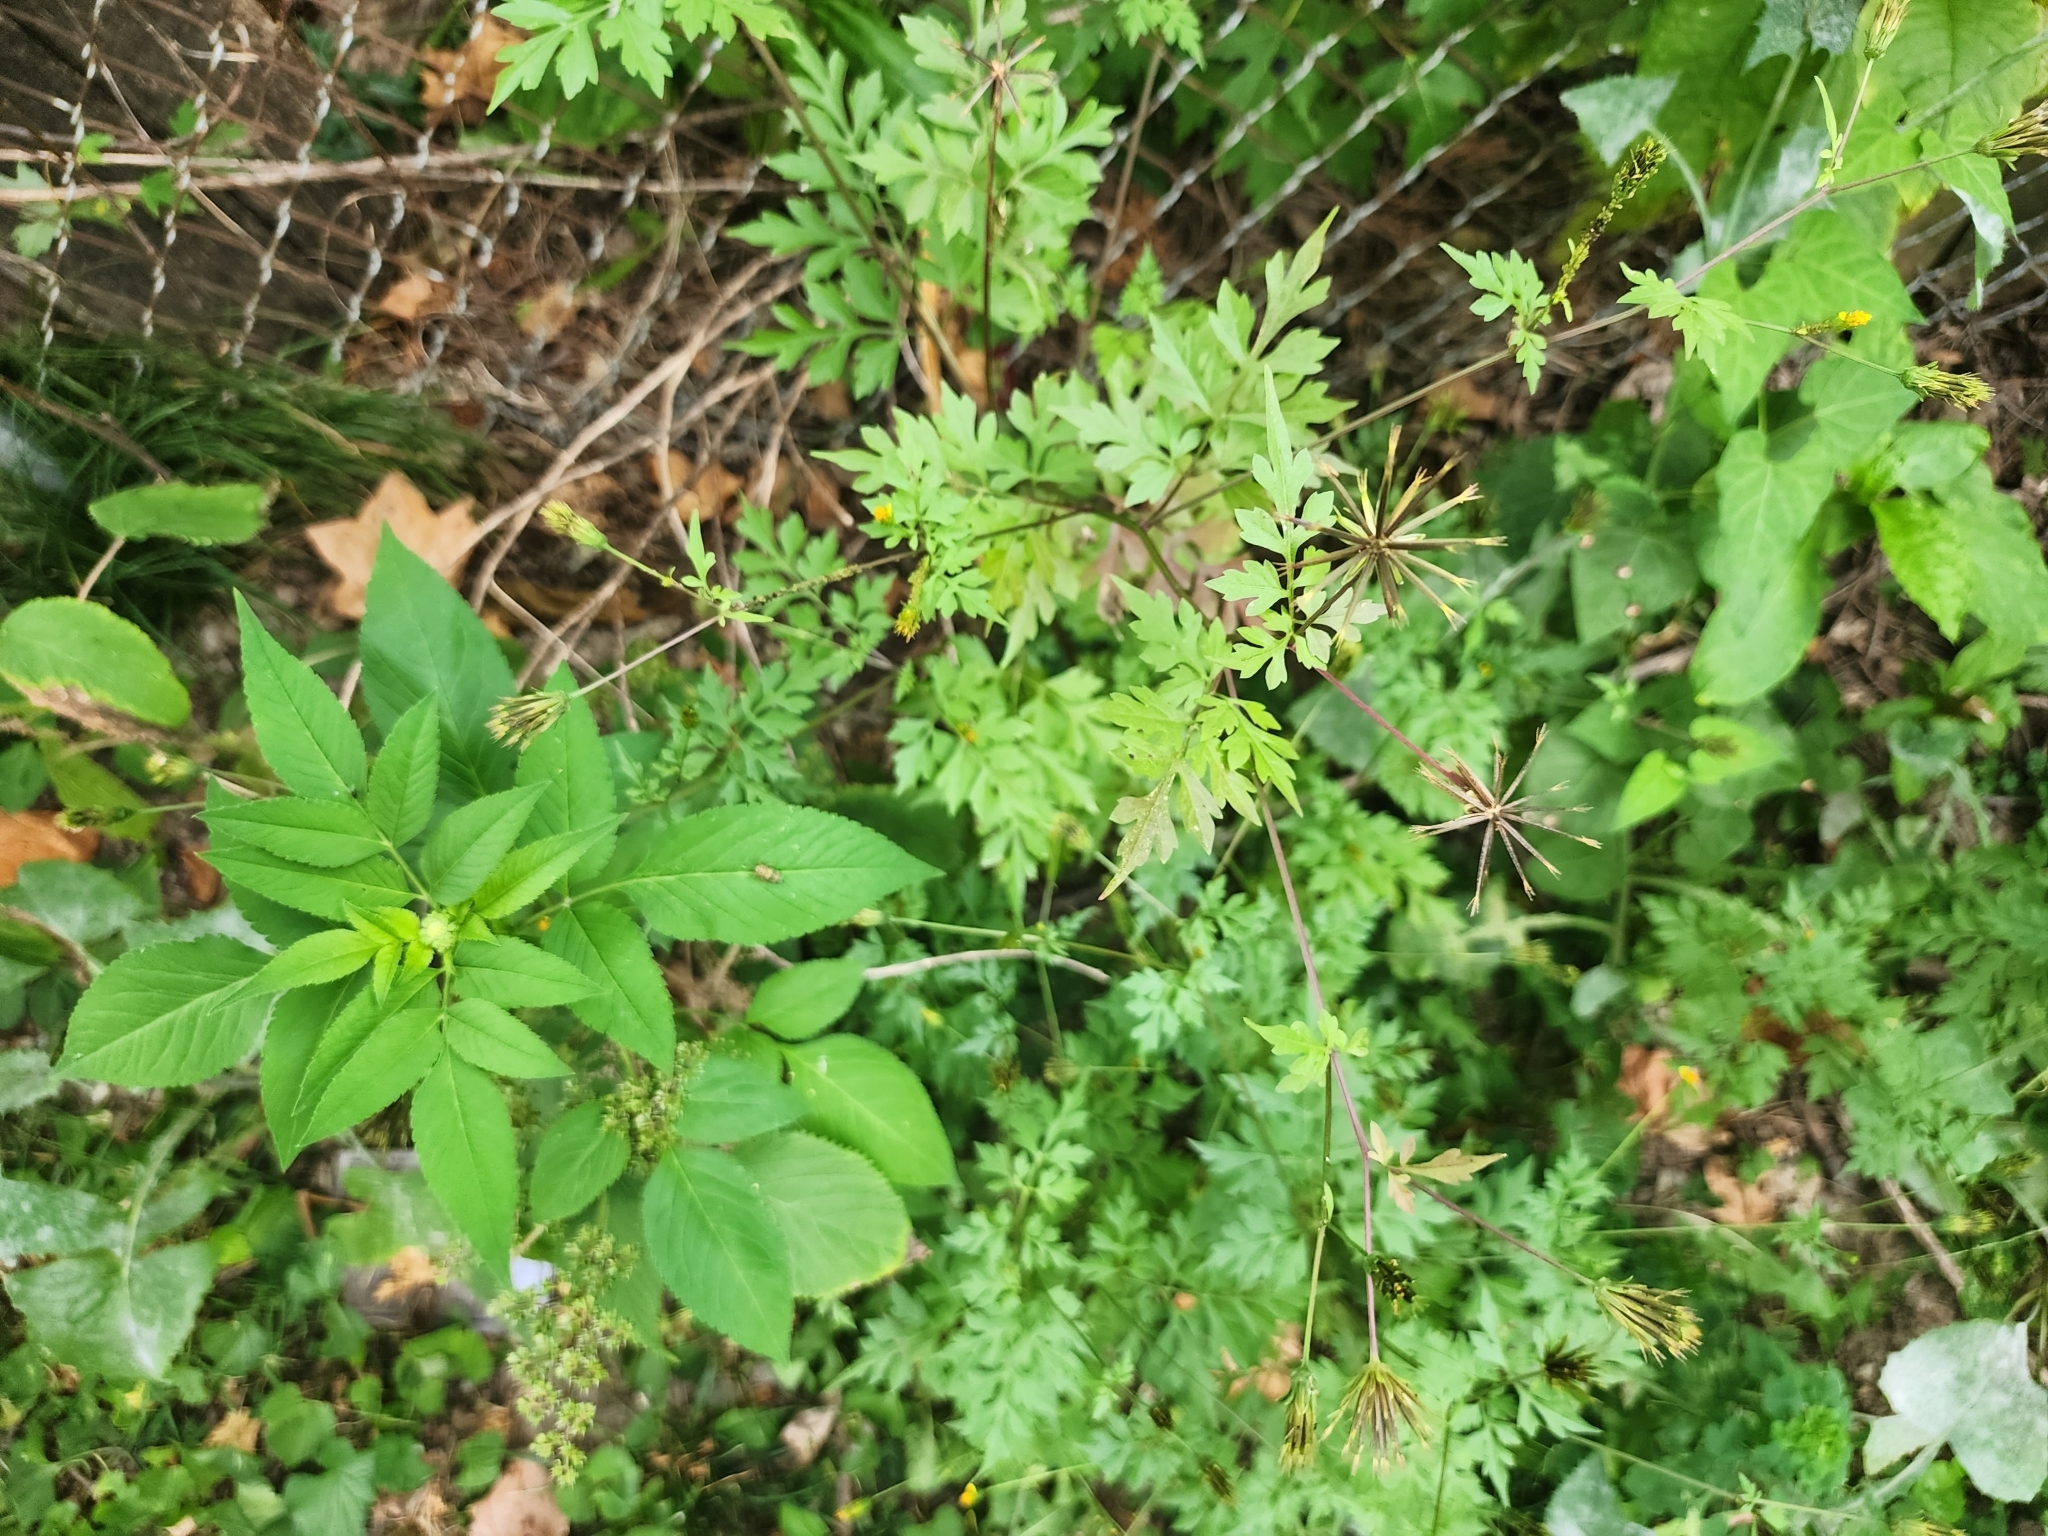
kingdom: Plantae
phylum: Tracheophyta
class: Magnoliopsida
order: Asterales
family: Asteraceae
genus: Bidens
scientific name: Bidens bipinnata
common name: Spanish-needles
